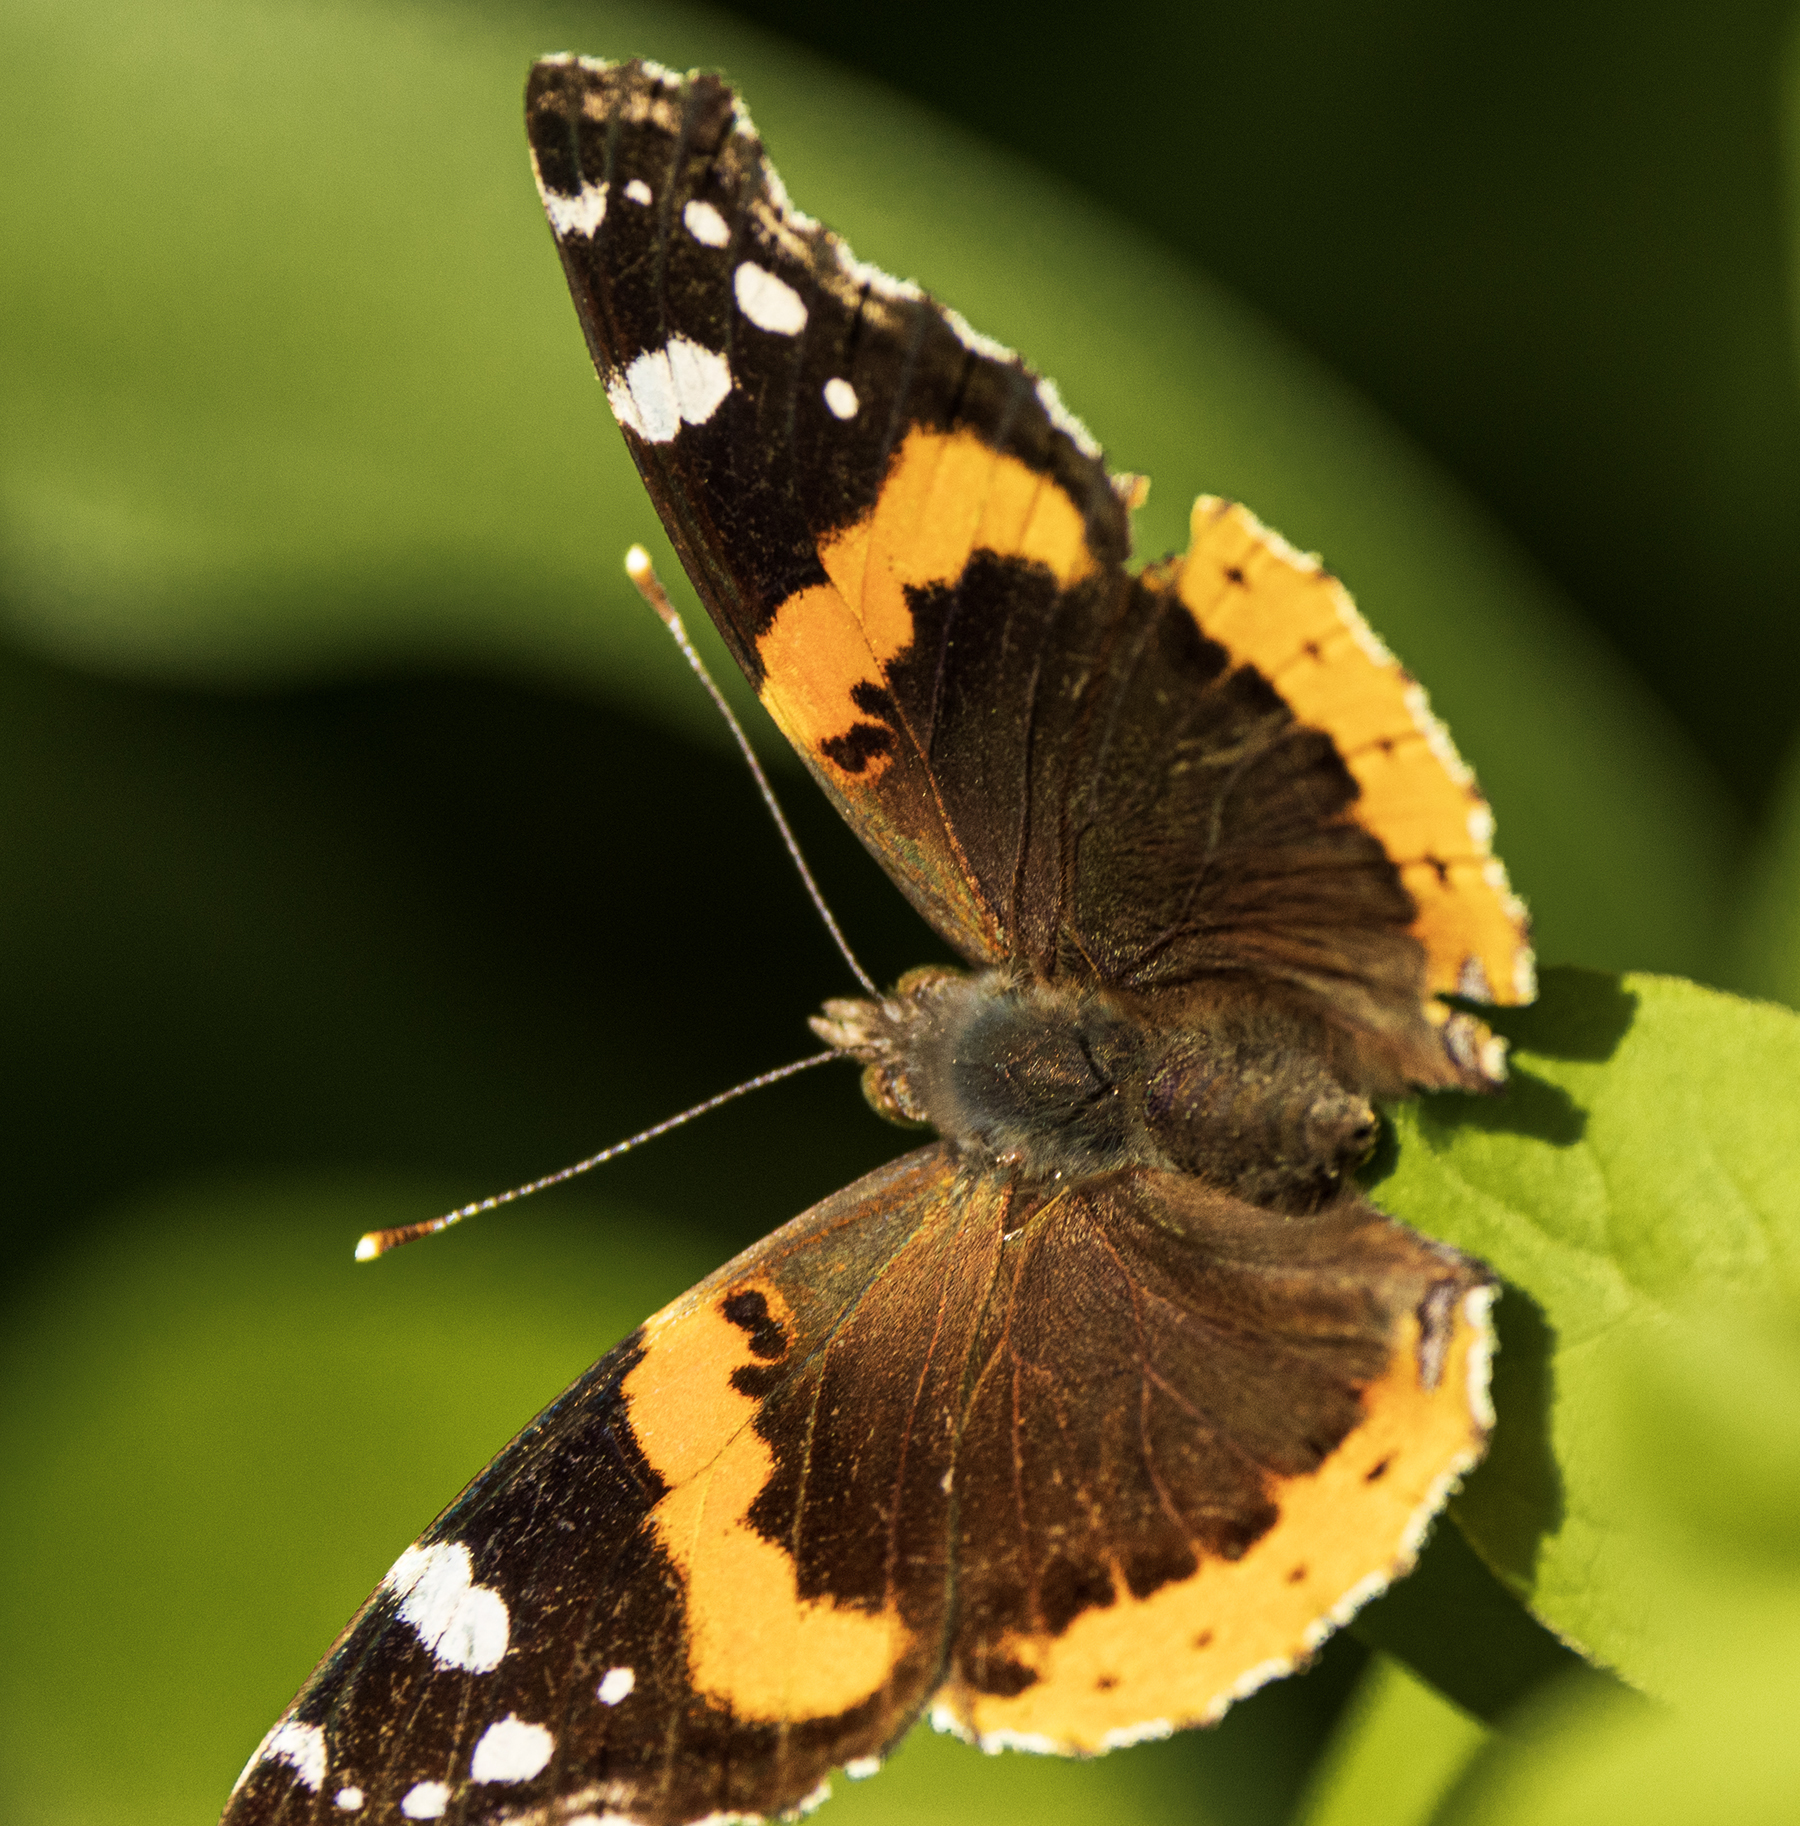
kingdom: Animalia
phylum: Arthropoda
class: Insecta
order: Lepidoptera
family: Nymphalidae
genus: Vanessa
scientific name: Vanessa atalanta
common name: Red admiral
